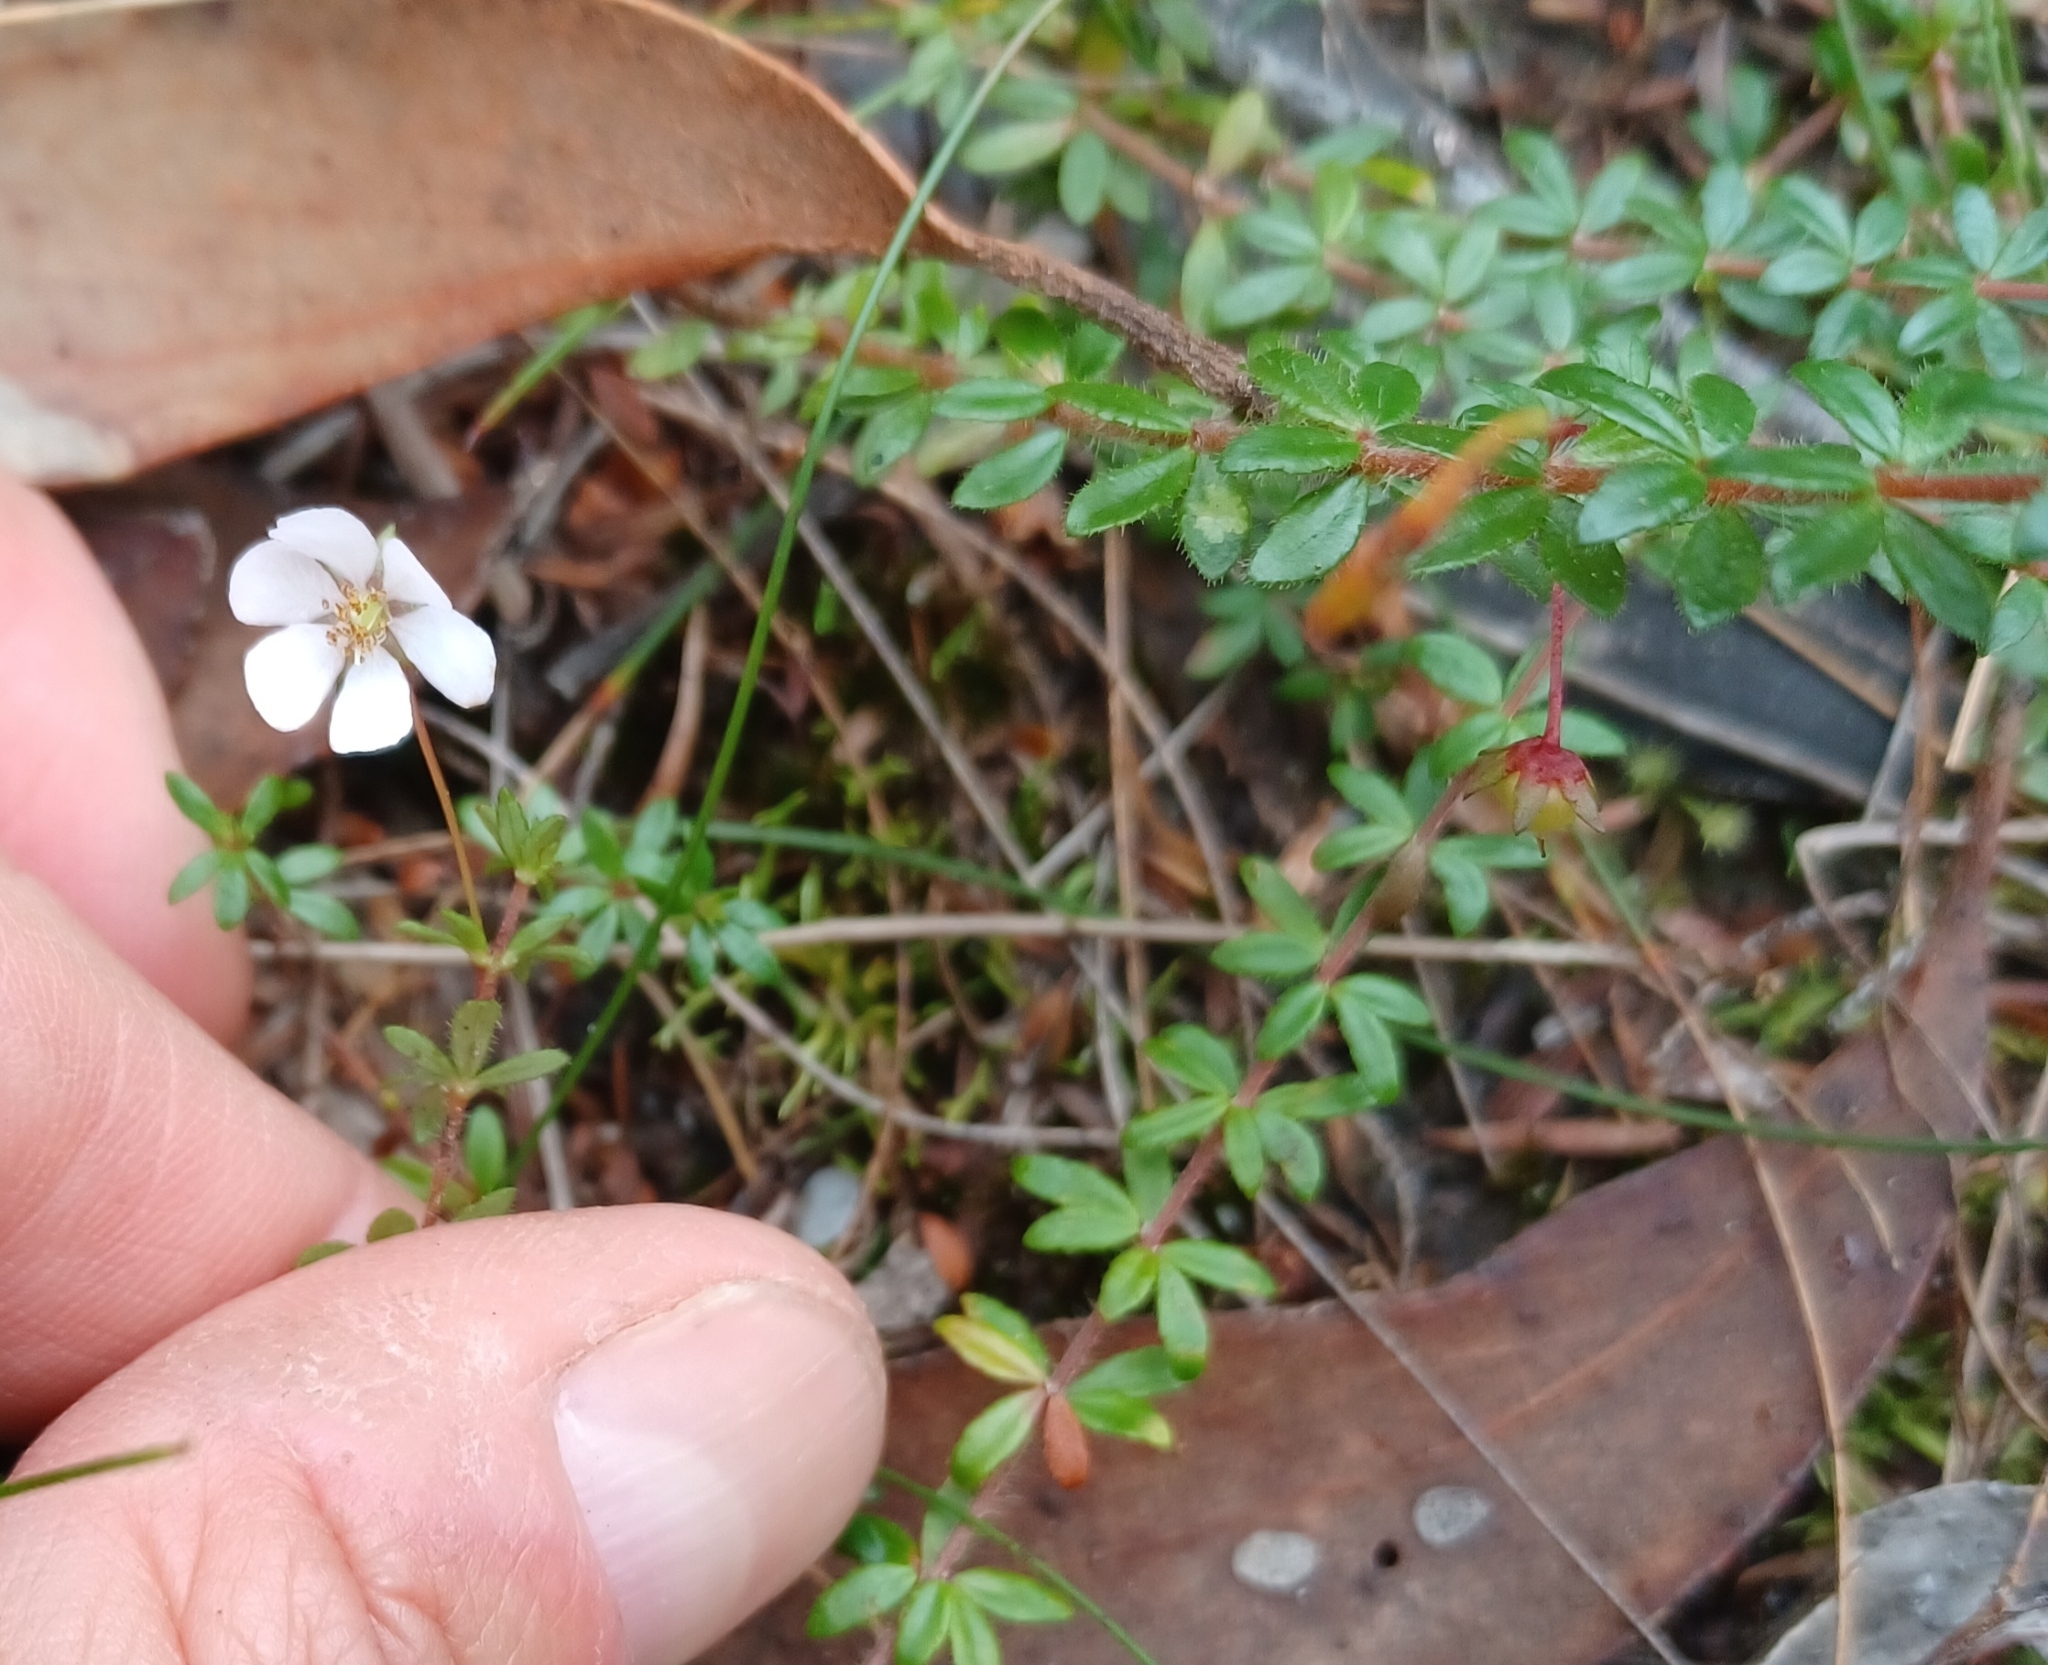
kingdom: Plantae
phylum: Tracheophyta
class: Magnoliopsida
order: Oxalidales
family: Cunoniaceae
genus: Bauera
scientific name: Bauera rubioides
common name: River-rose
